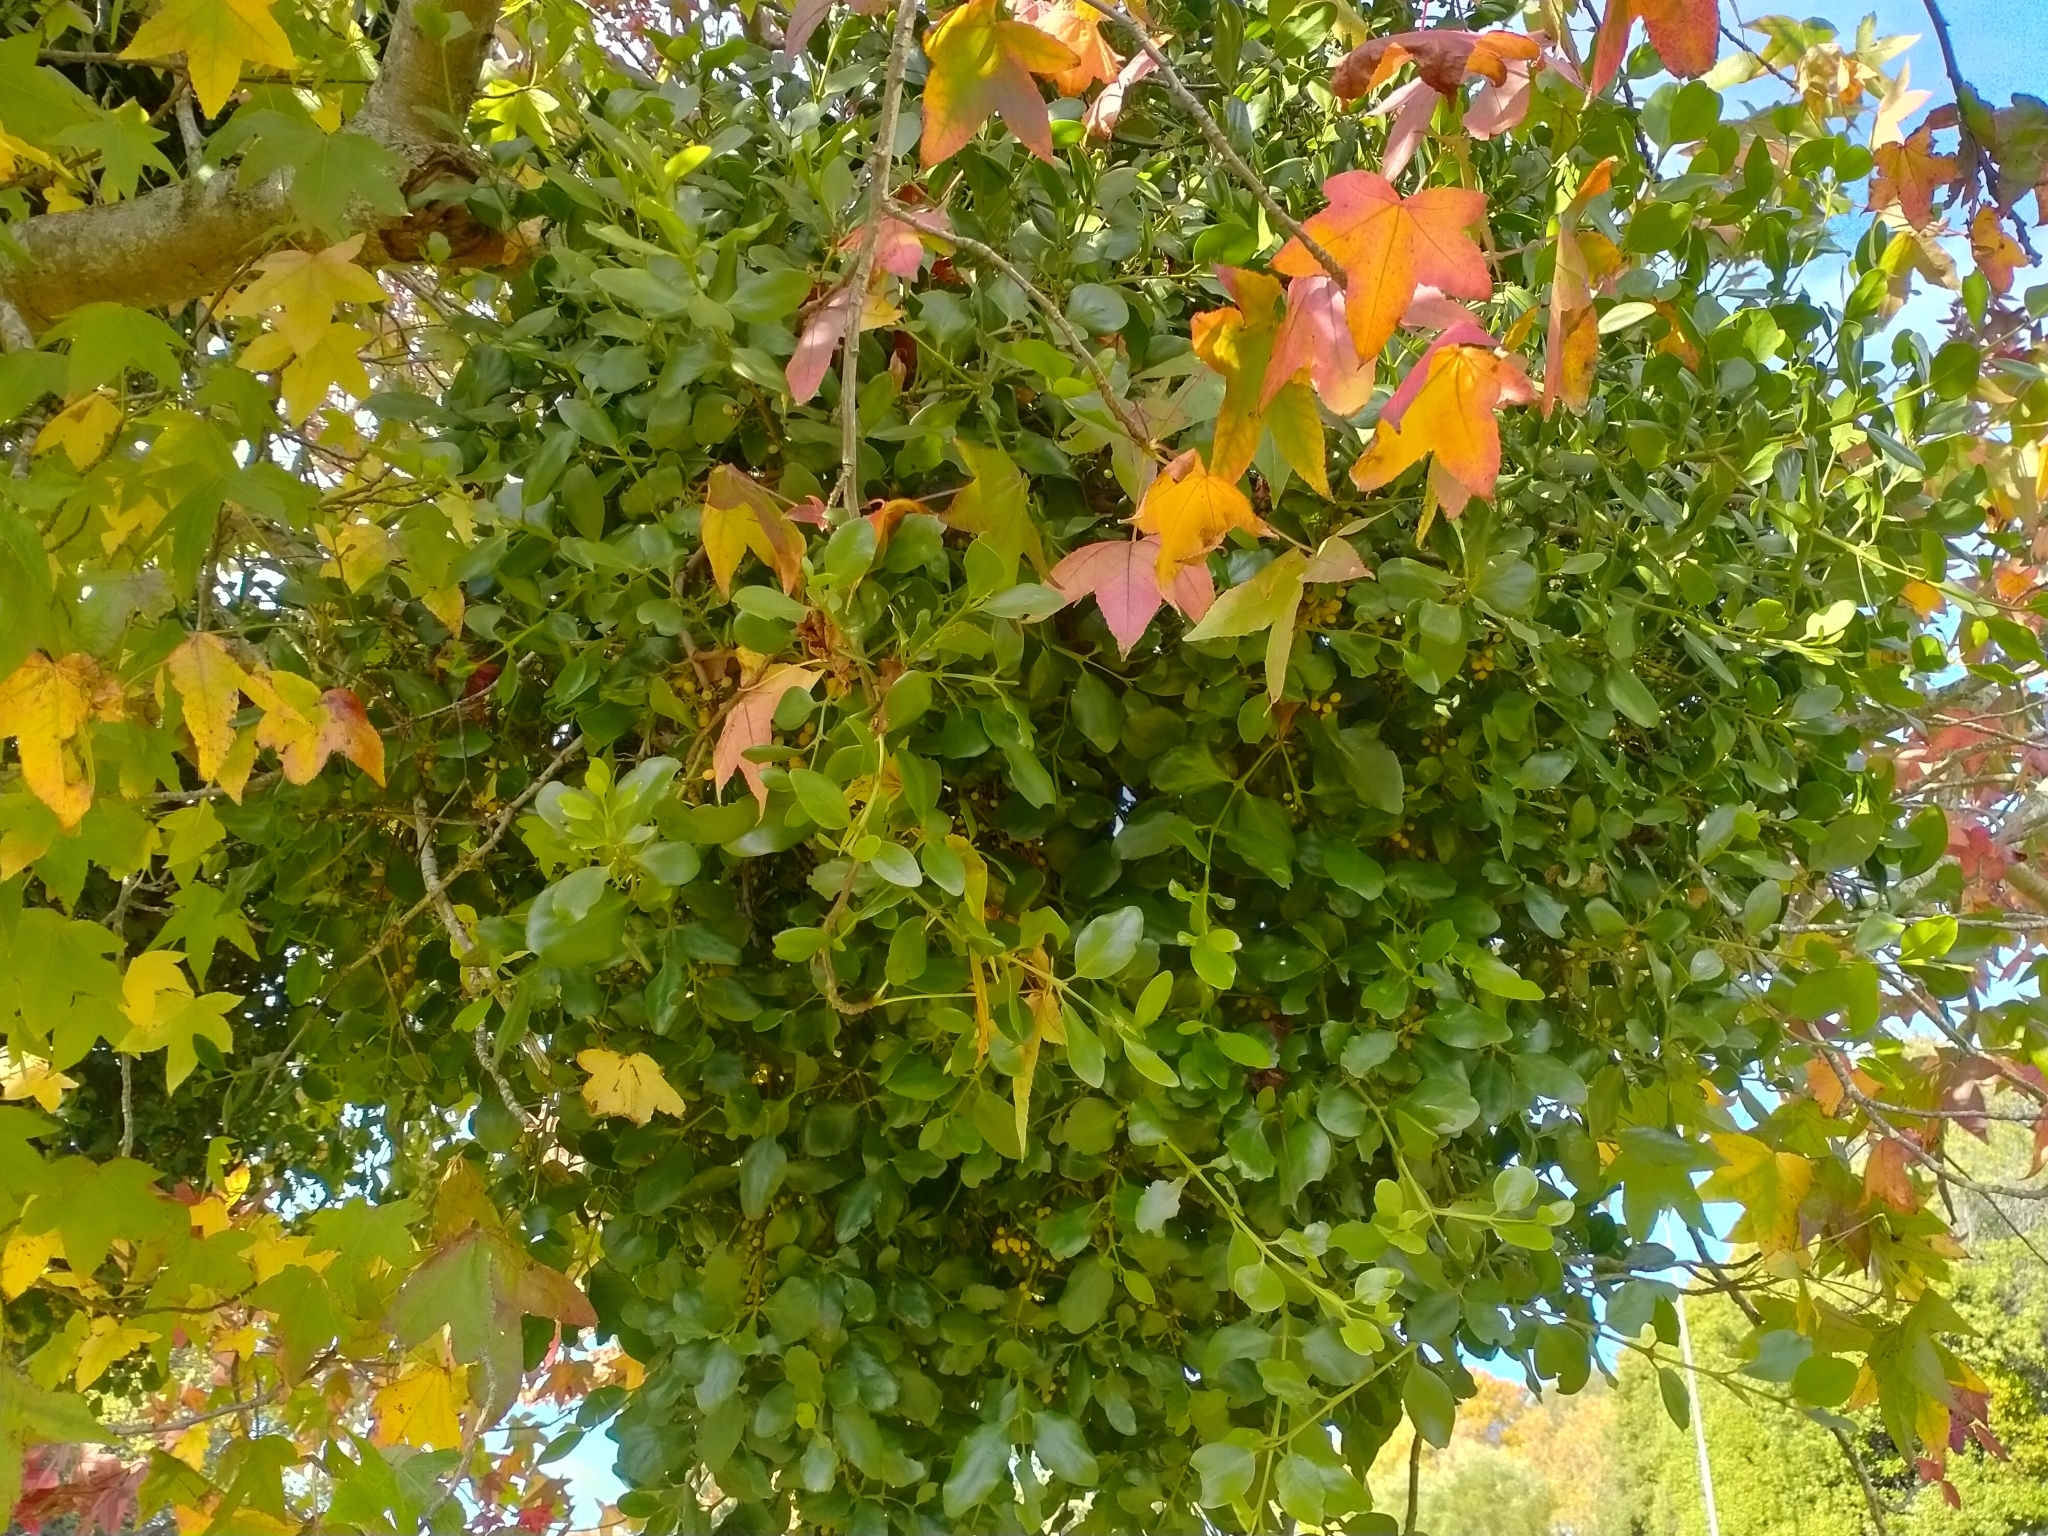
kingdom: Plantae
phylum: Tracheophyta
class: Magnoliopsida
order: Santalales
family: Loranthaceae
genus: Ileostylus
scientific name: Ileostylus micranthus
